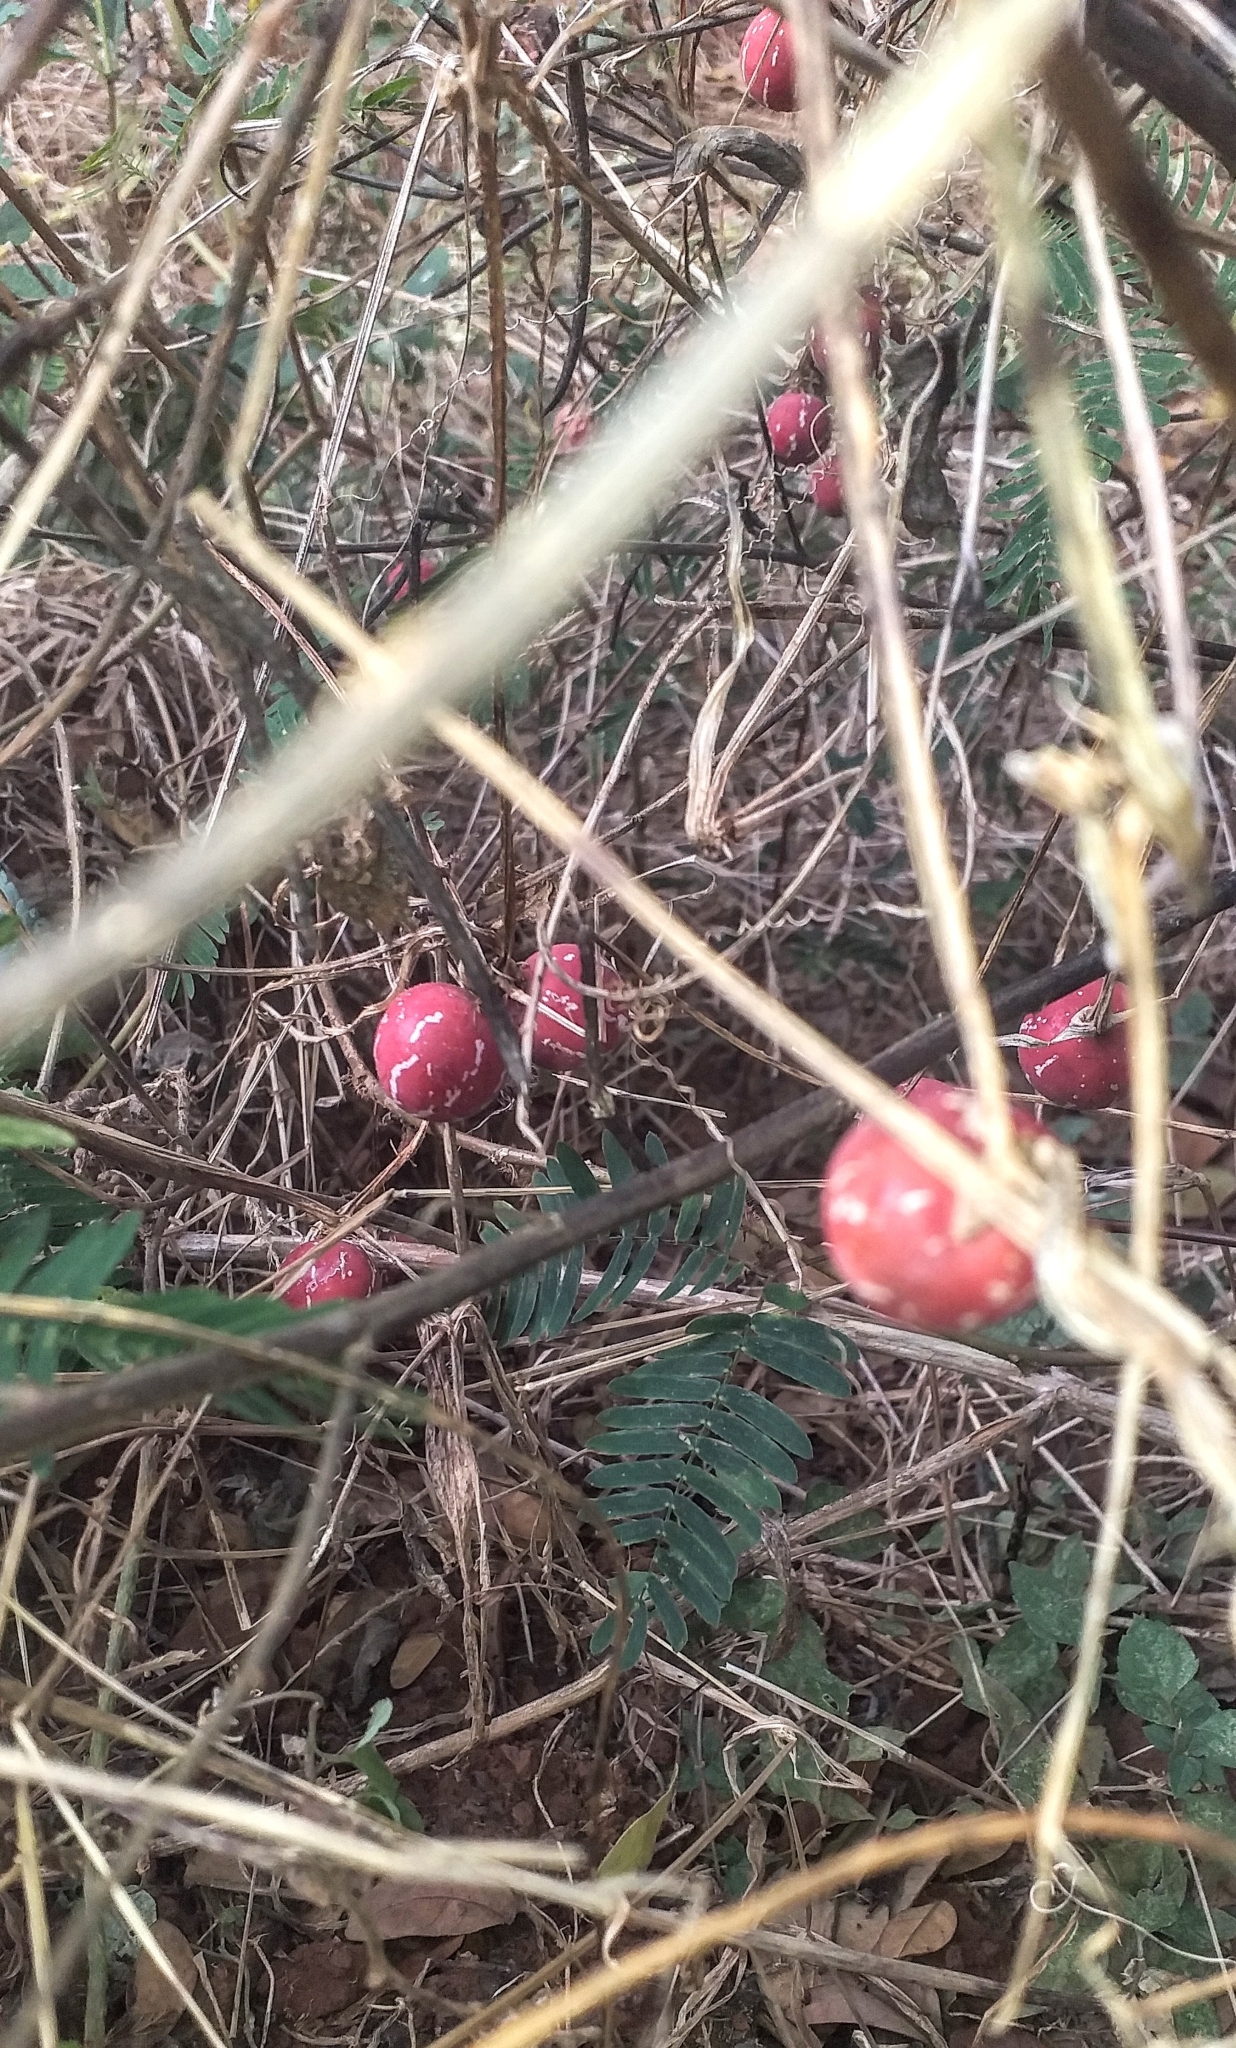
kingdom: Plantae
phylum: Tracheophyta
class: Magnoliopsida
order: Cucurbitales
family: Cucurbitaceae
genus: Diplocyclos
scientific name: Diplocyclos palmatus
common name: Striped-cucumber
